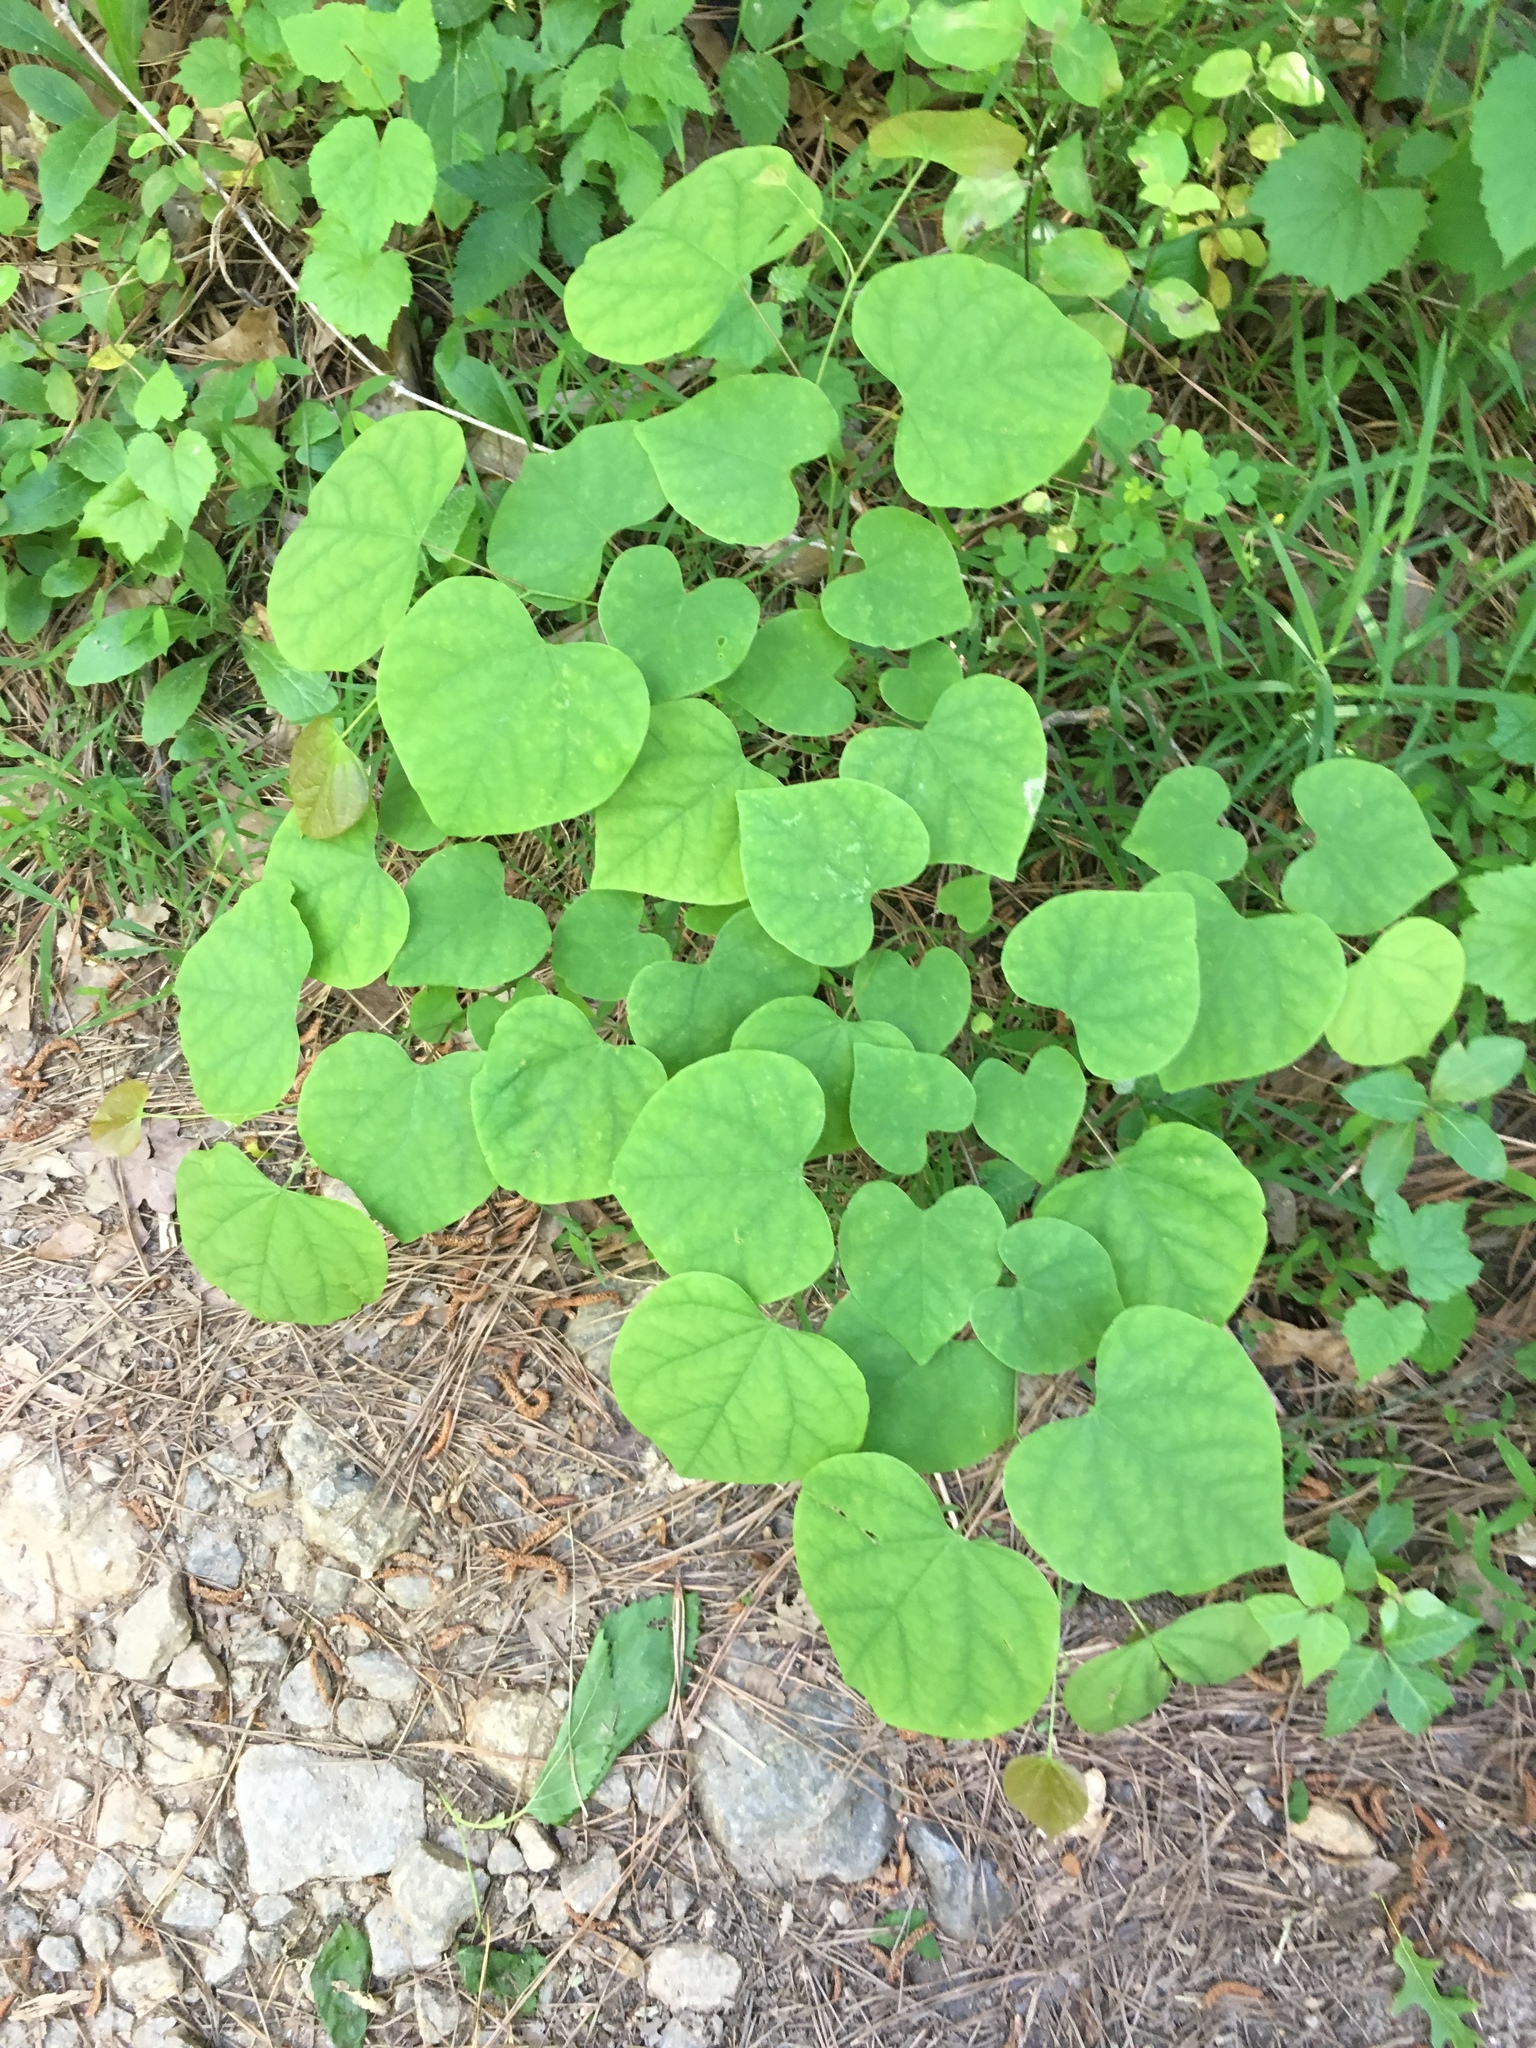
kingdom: Plantae
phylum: Tracheophyta
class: Magnoliopsida
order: Fabales
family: Fabaceae
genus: Cercis
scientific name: Cercis canadensis
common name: Eastern redbud
